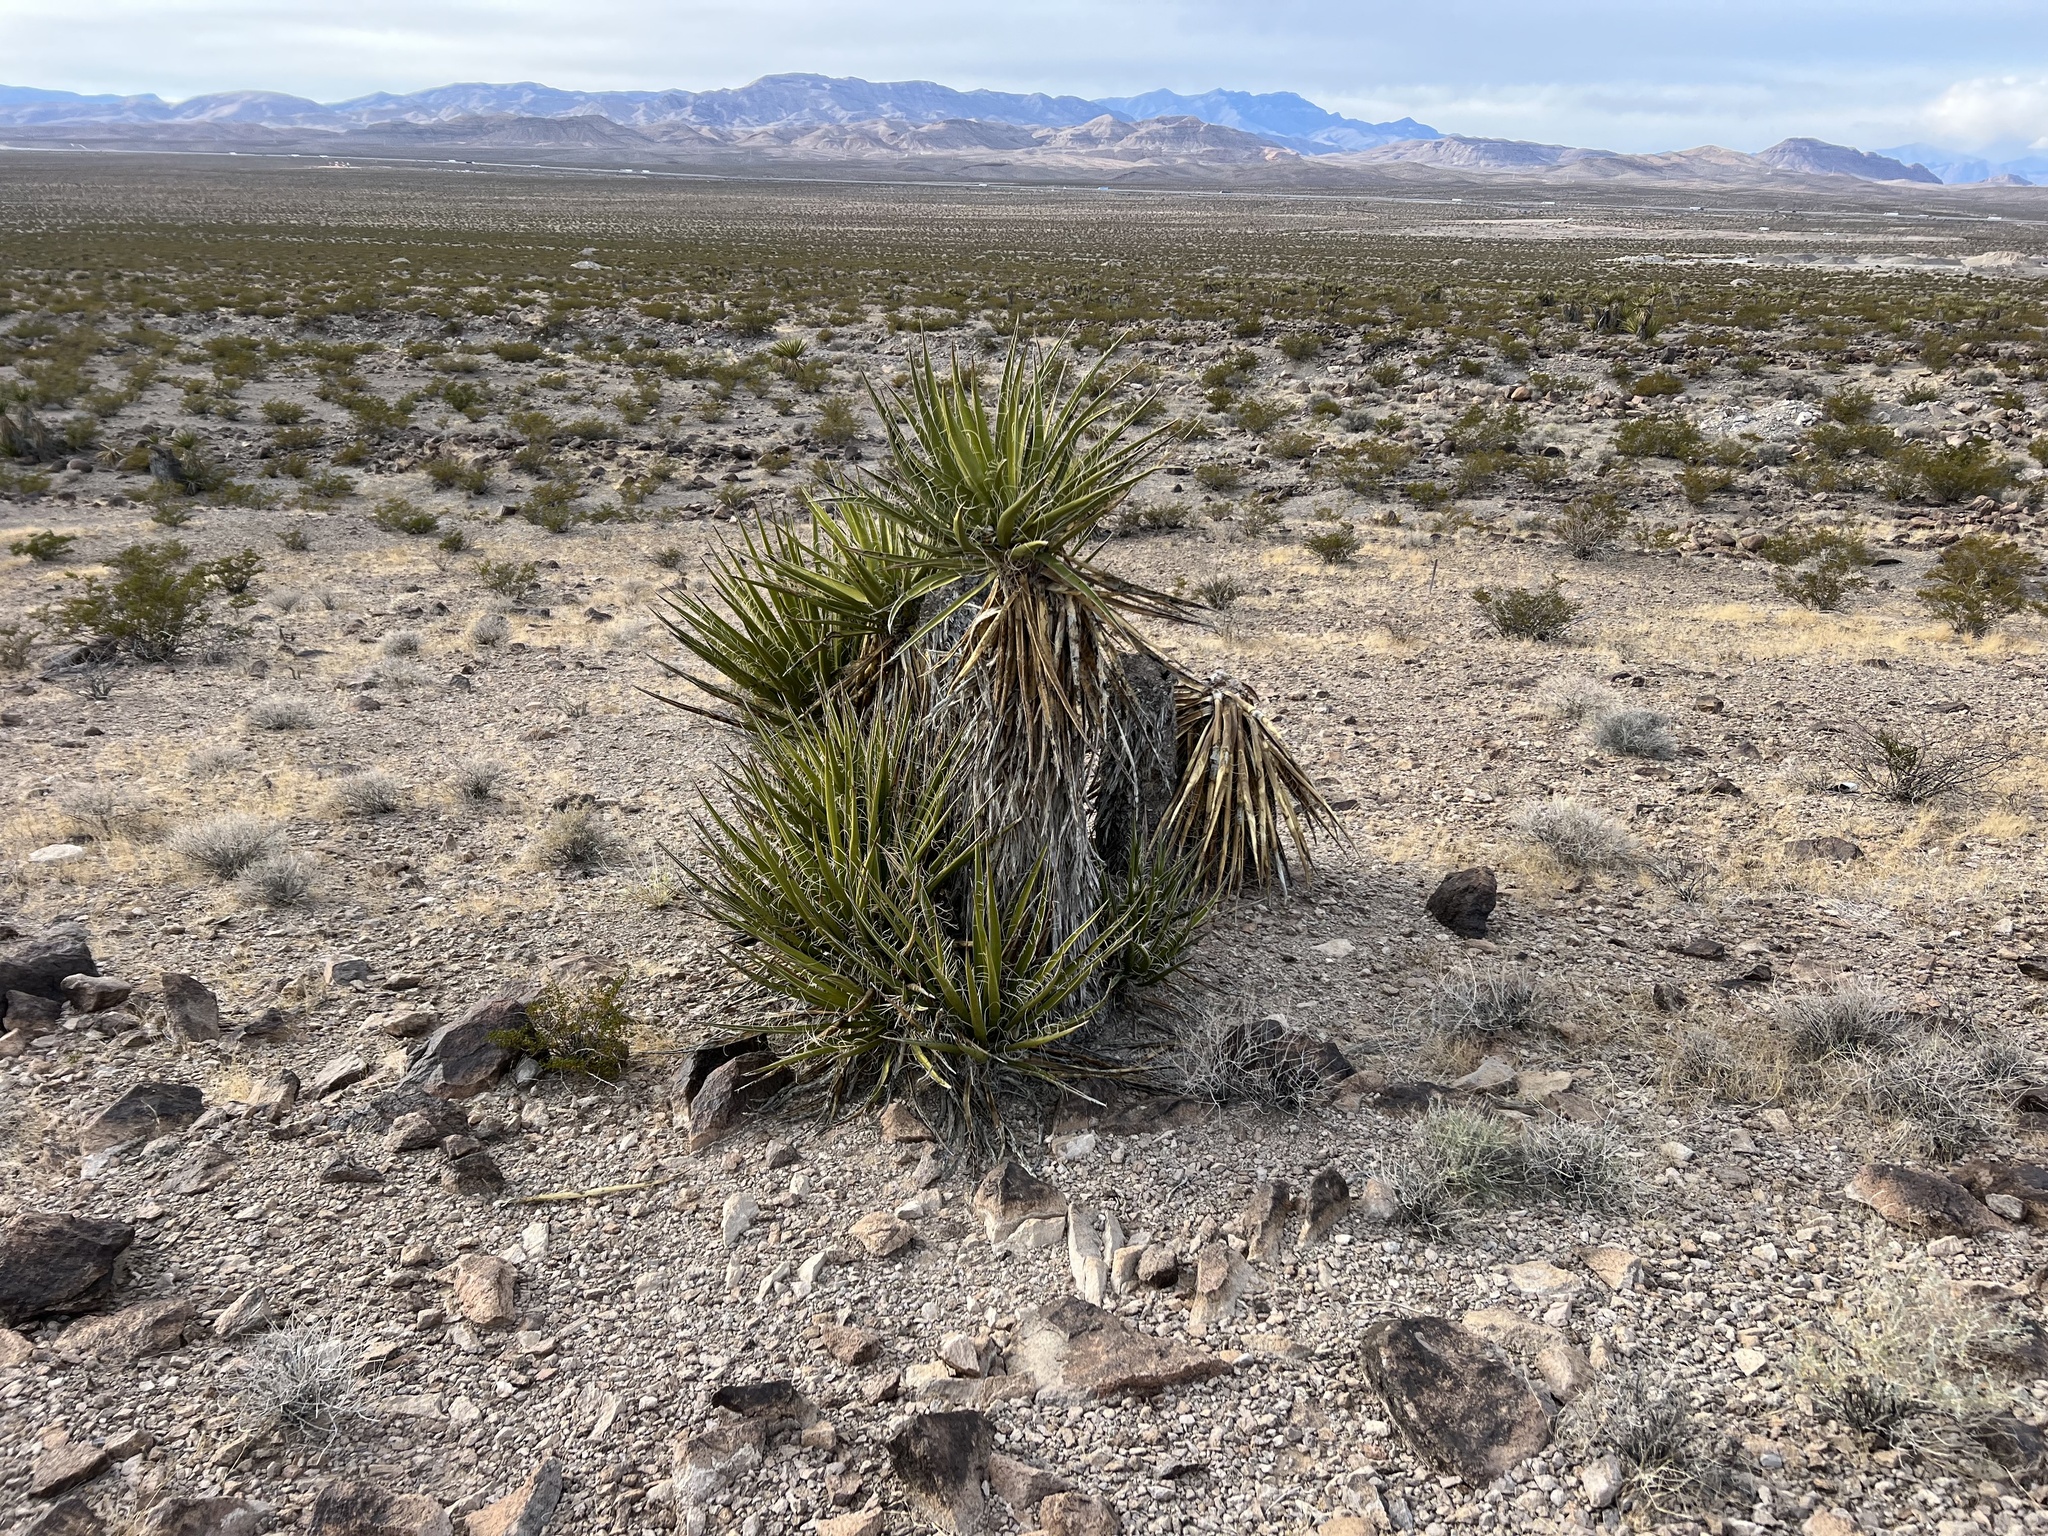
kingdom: Plantae
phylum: Tracheophyta
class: Liliopsida
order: Asparagales
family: Asparagaceae
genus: Yucca
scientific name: Yucca schidigera
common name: Mojave yucca
